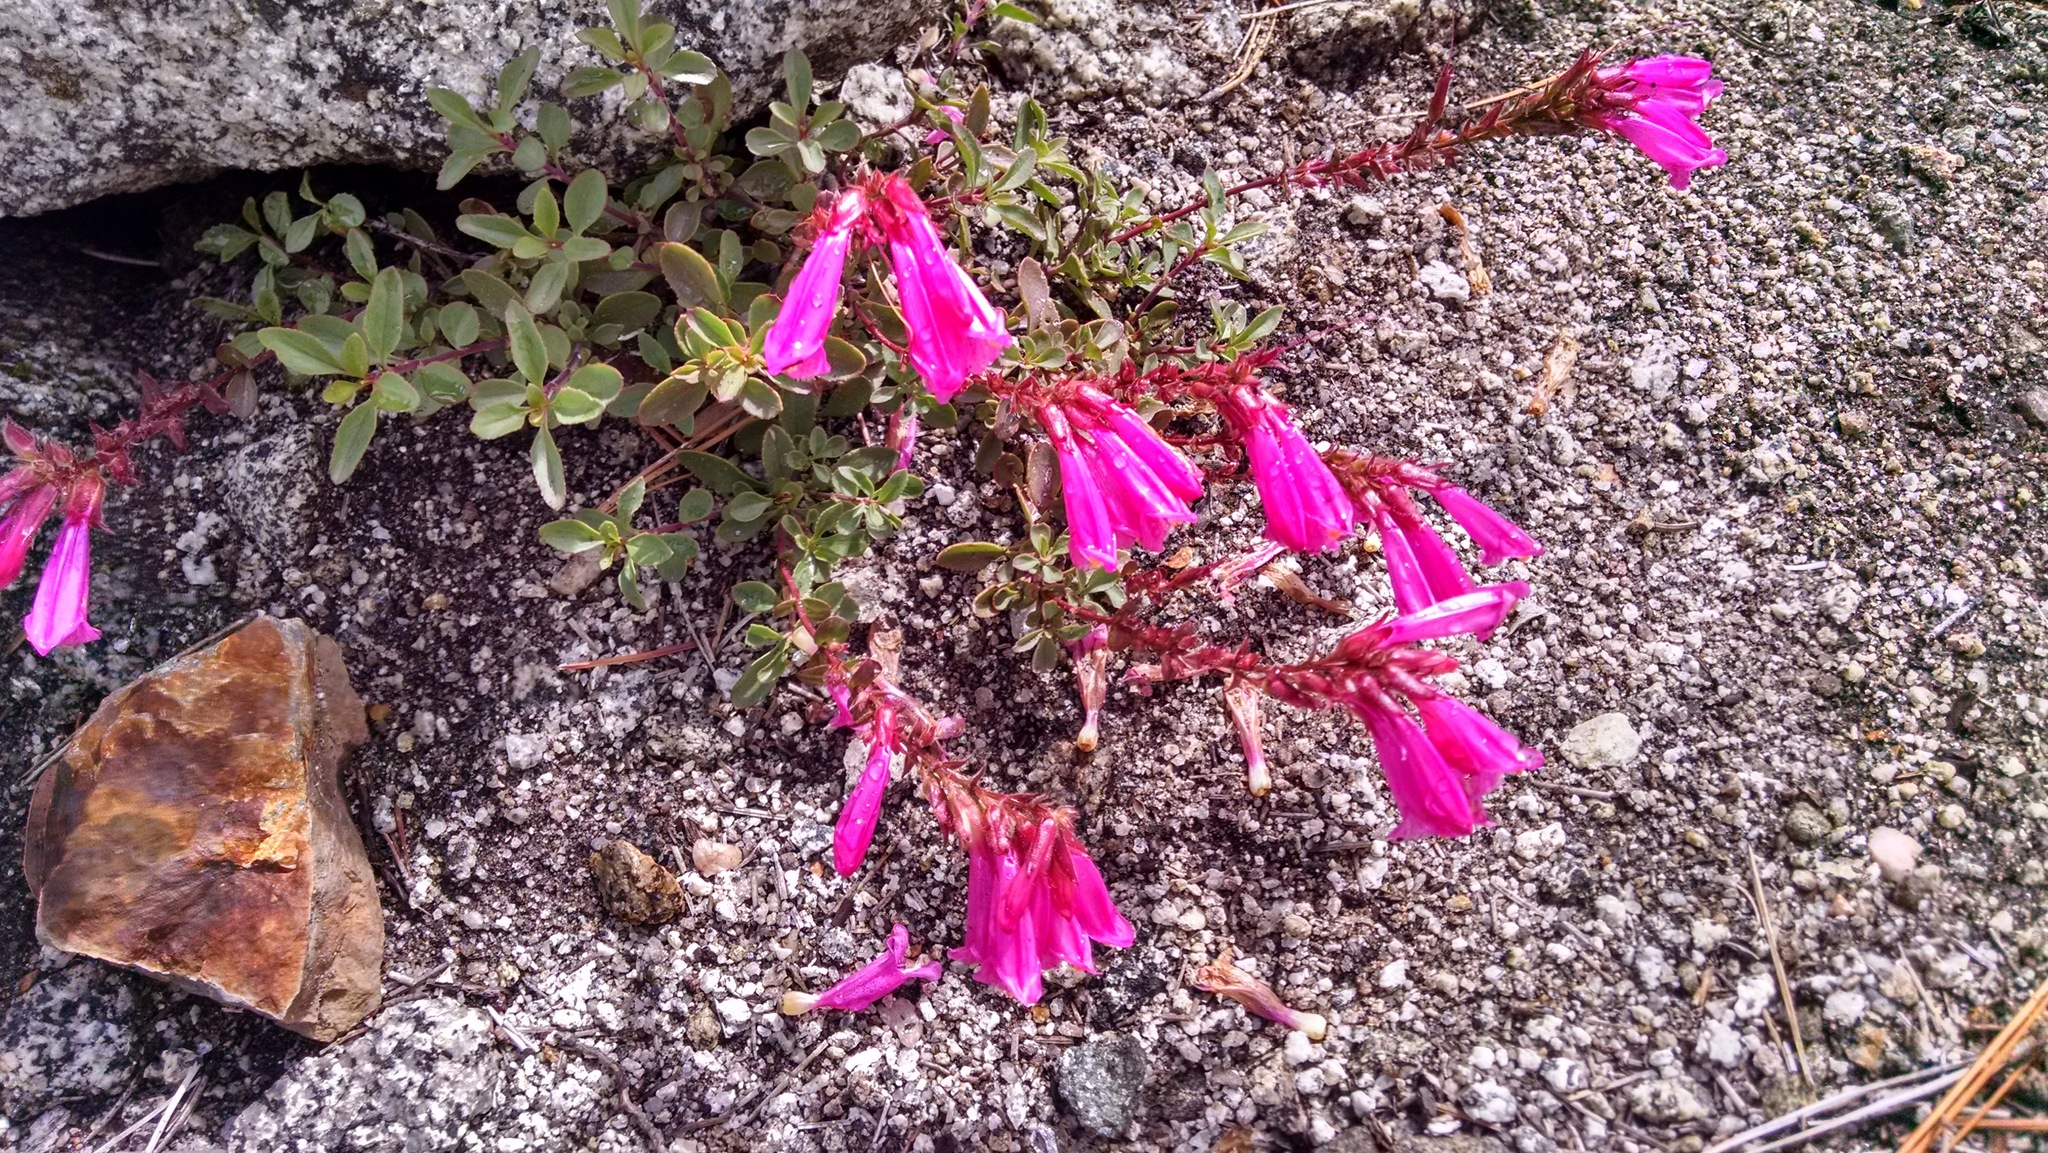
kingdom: Plantae
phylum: Tracheophyta
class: Magnoliopsida
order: Lamiales
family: Plantaginaceae
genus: Penstemon
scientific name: Penstemon newberryi
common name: Mountain-pride
